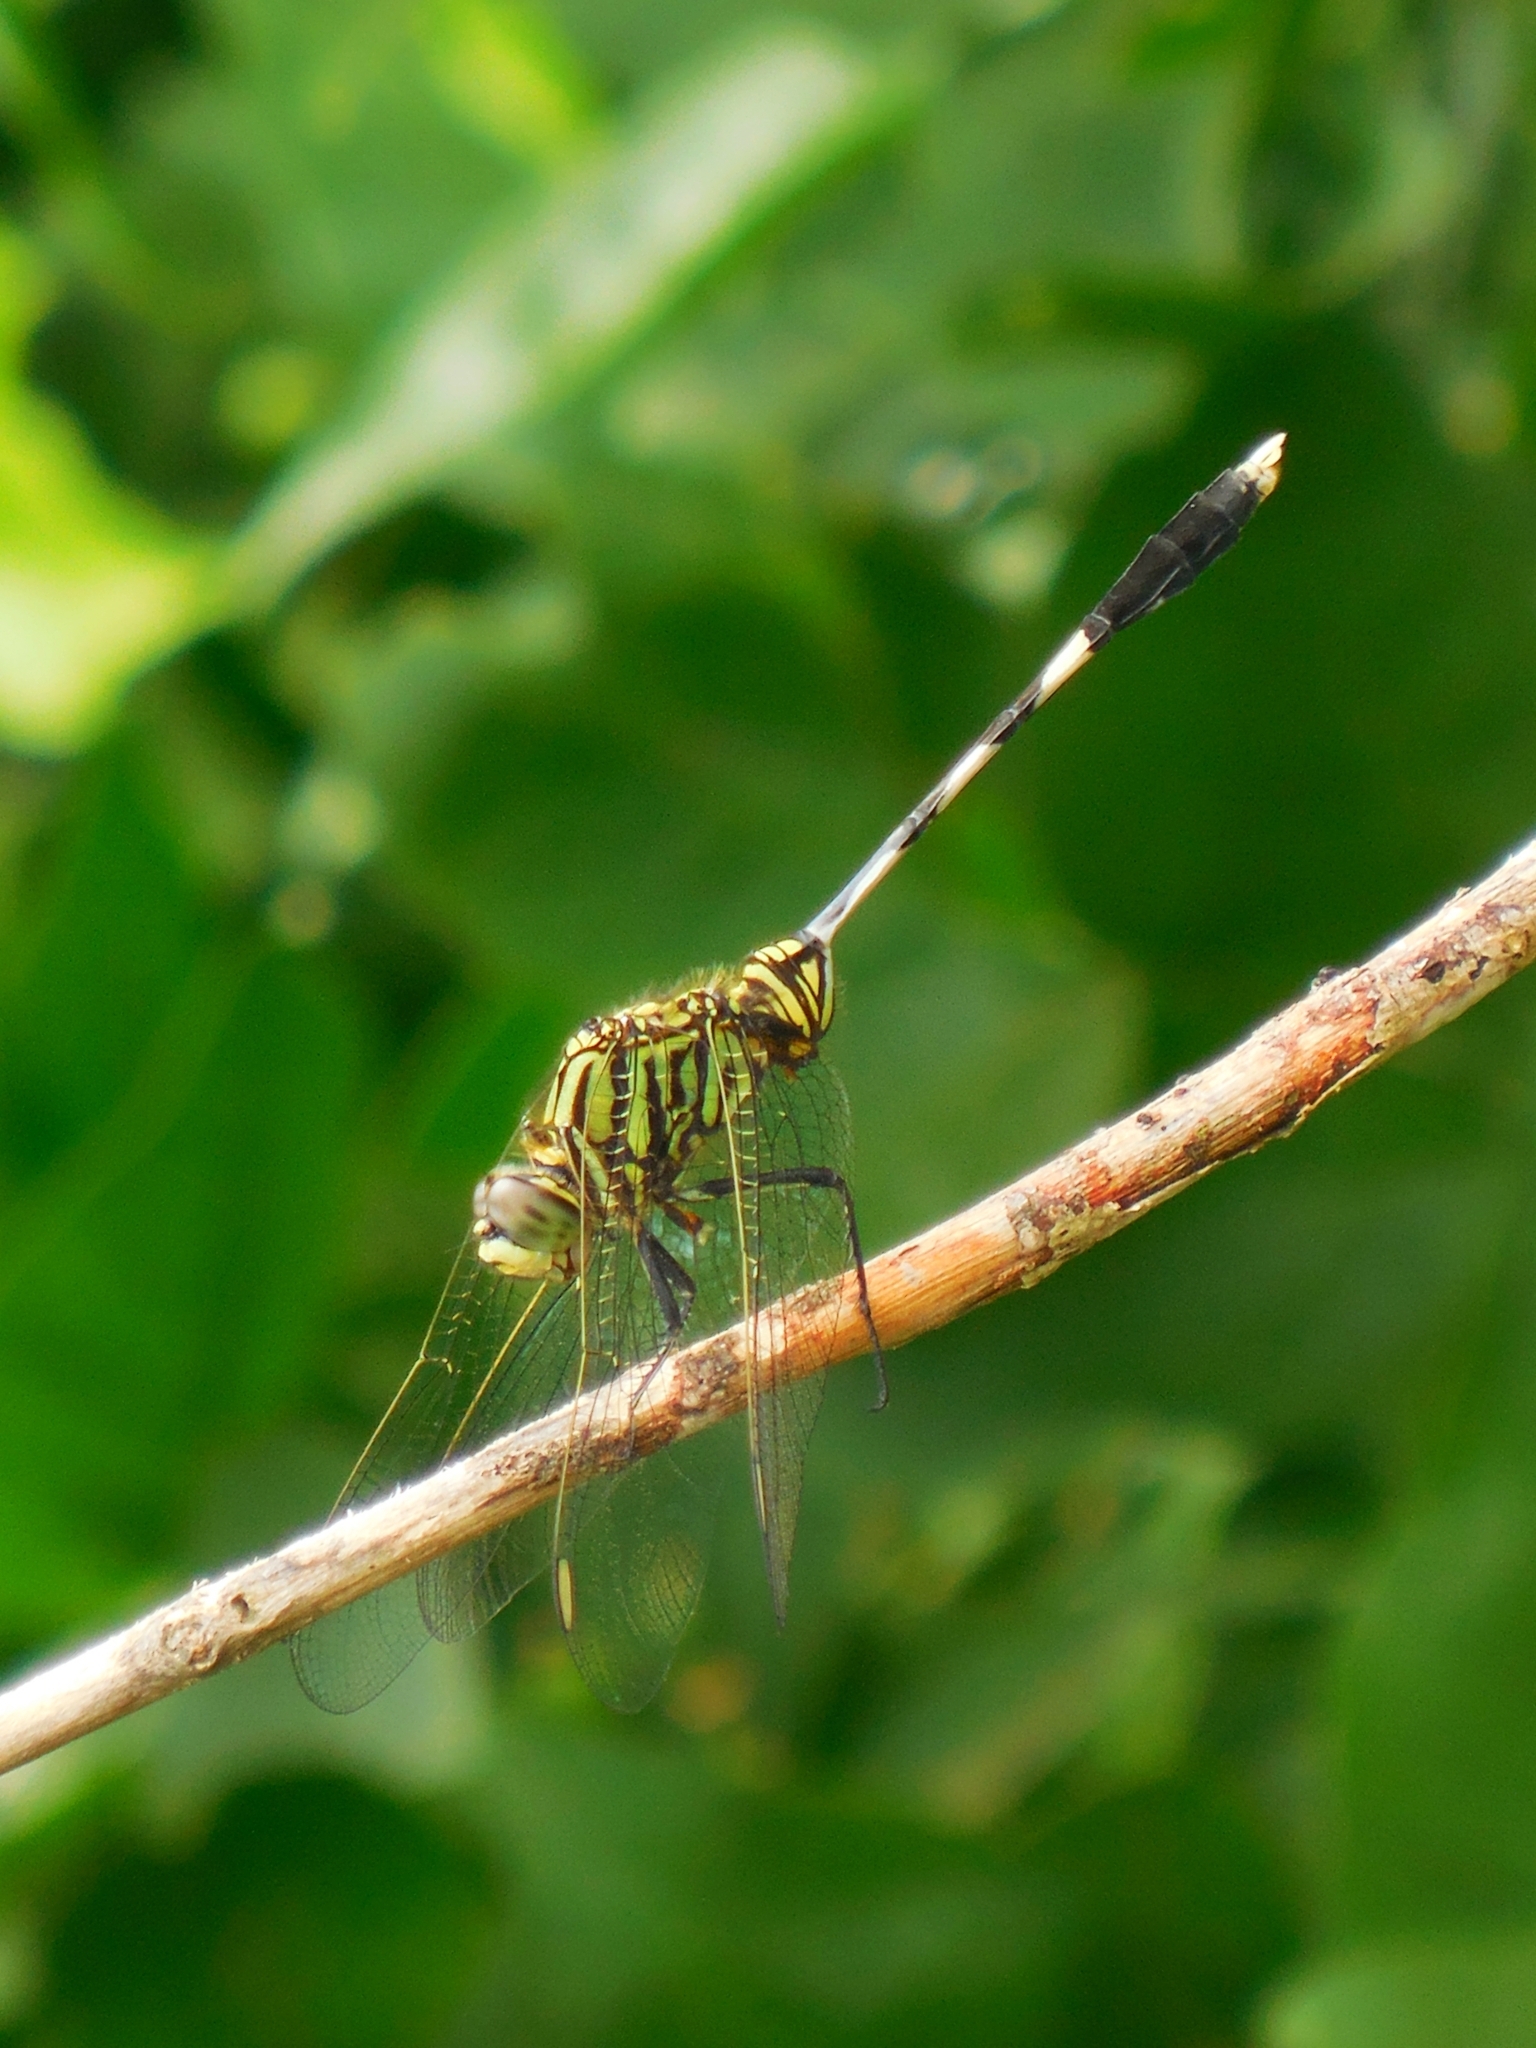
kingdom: Animalia
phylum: Arthropoda
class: Insecta
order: Odonata
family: Libellulidae
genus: Orthetrum
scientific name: Orthetrum sabina
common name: Slender skimmer
